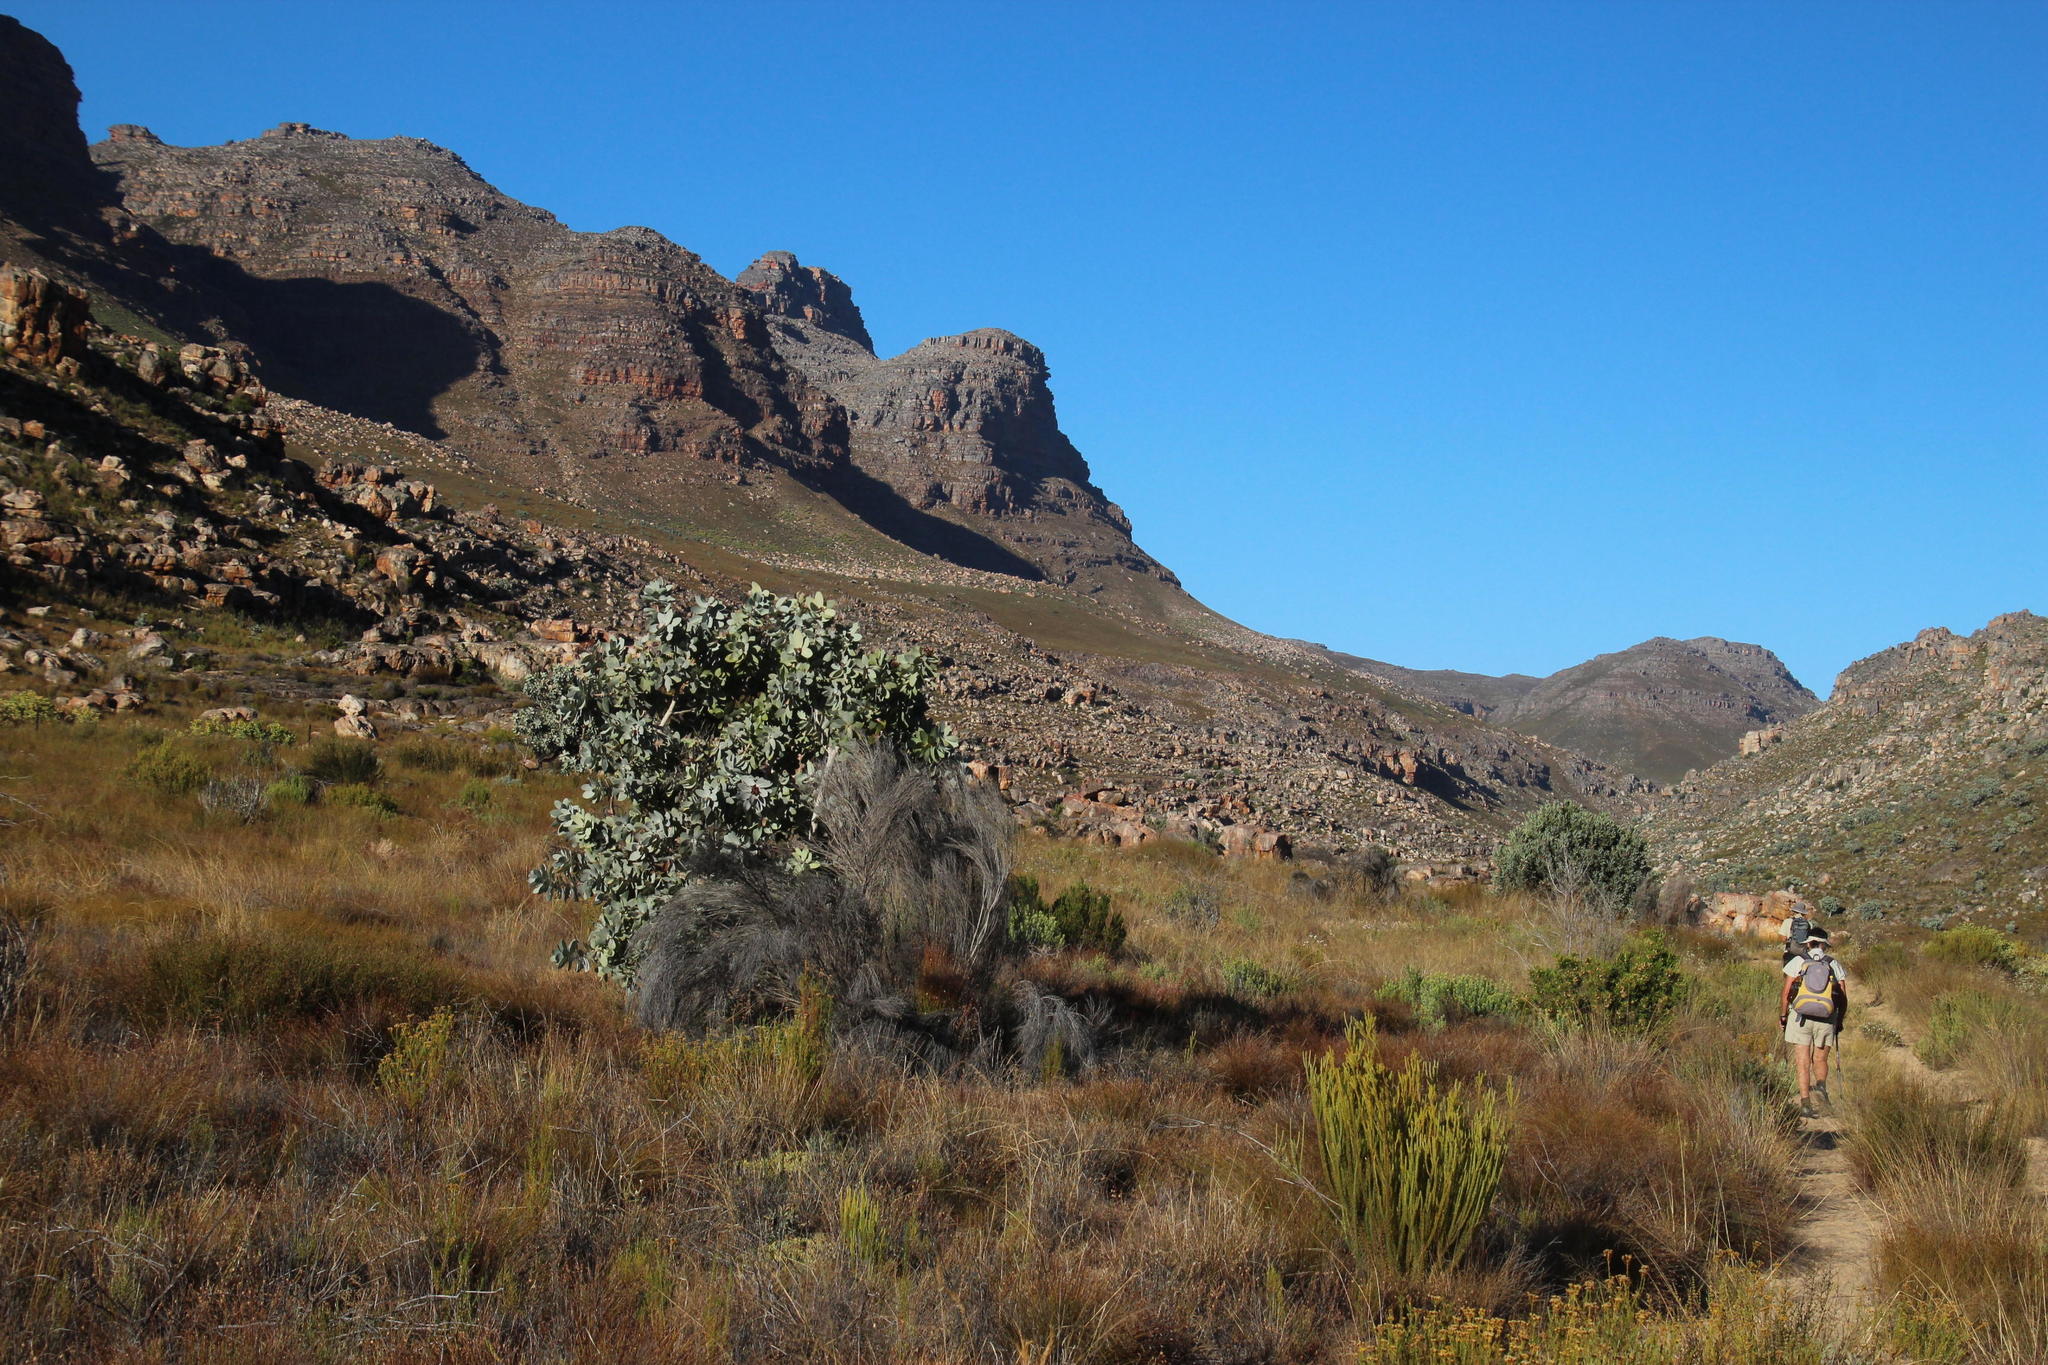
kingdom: Plantae
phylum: Tracheophyta
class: Magnoliopsida
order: Proteales
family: Proteaceae
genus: Protea
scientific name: Protea nitida
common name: Tree protea
